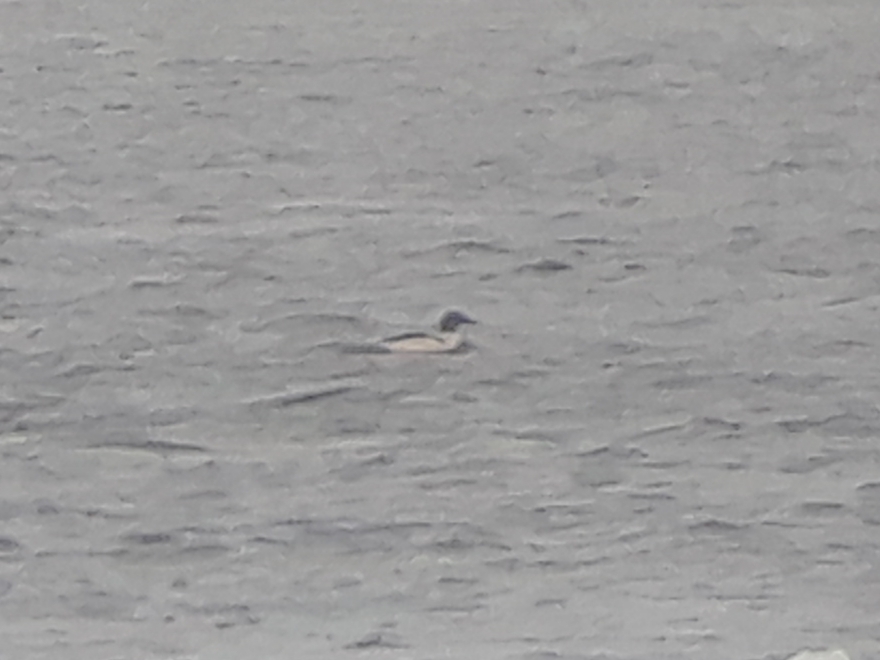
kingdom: Animalia
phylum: Chordata
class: Aves
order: Anseriformes
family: Anatidae
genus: Mergus
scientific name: Mergus merganser
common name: Common merganser
